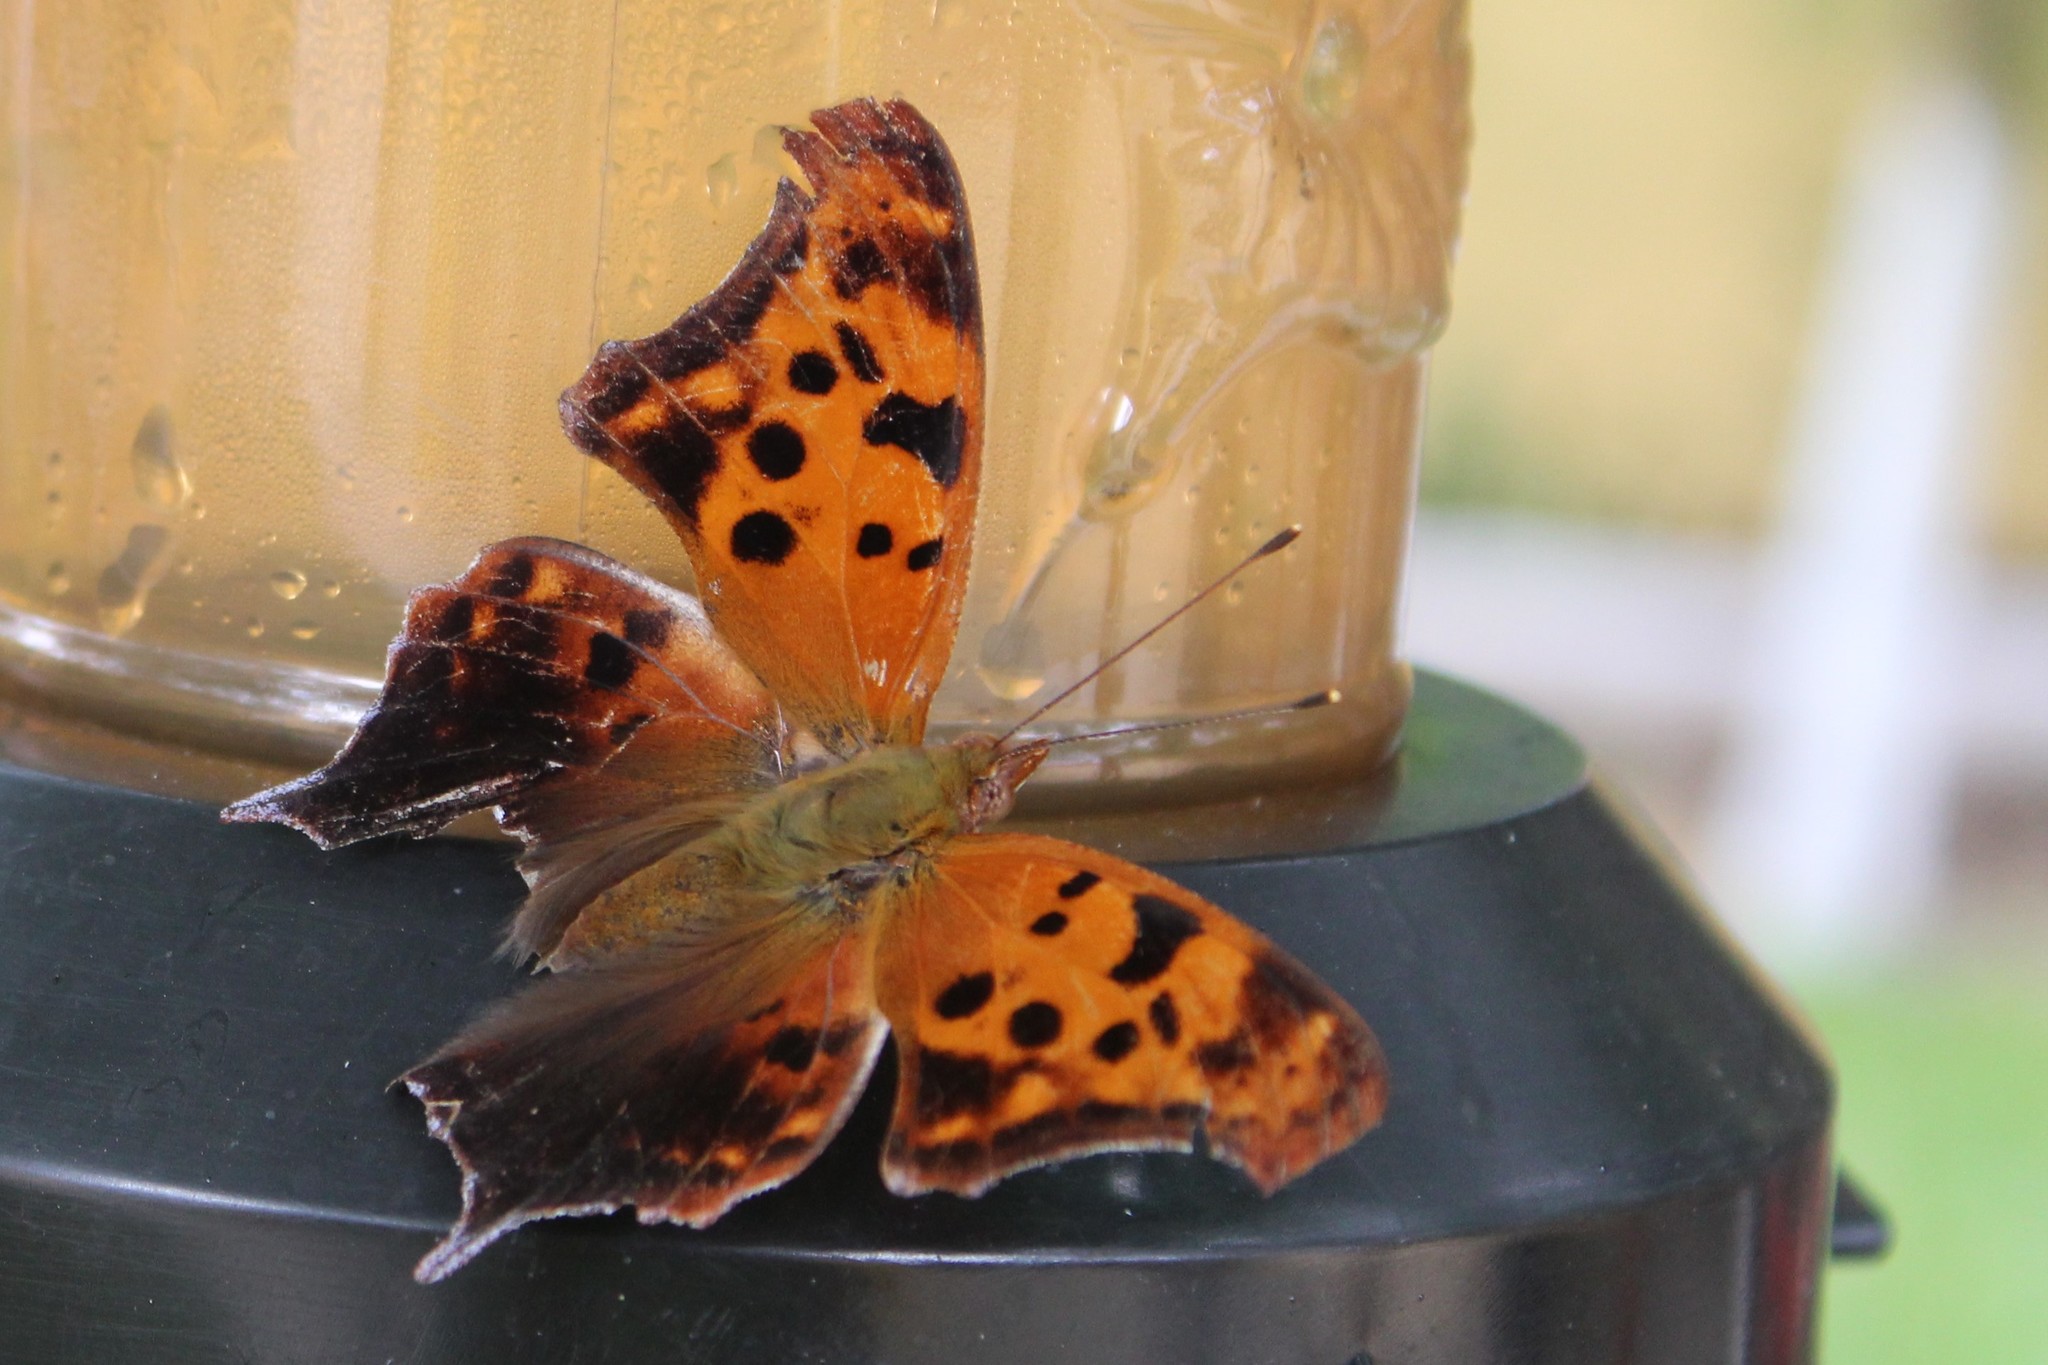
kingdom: Animalia
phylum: Arthropoda
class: Insecta
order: Lepidoptera
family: Nymphalidae
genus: Polygonia
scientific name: Polygonia interrogationis
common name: Question mark
